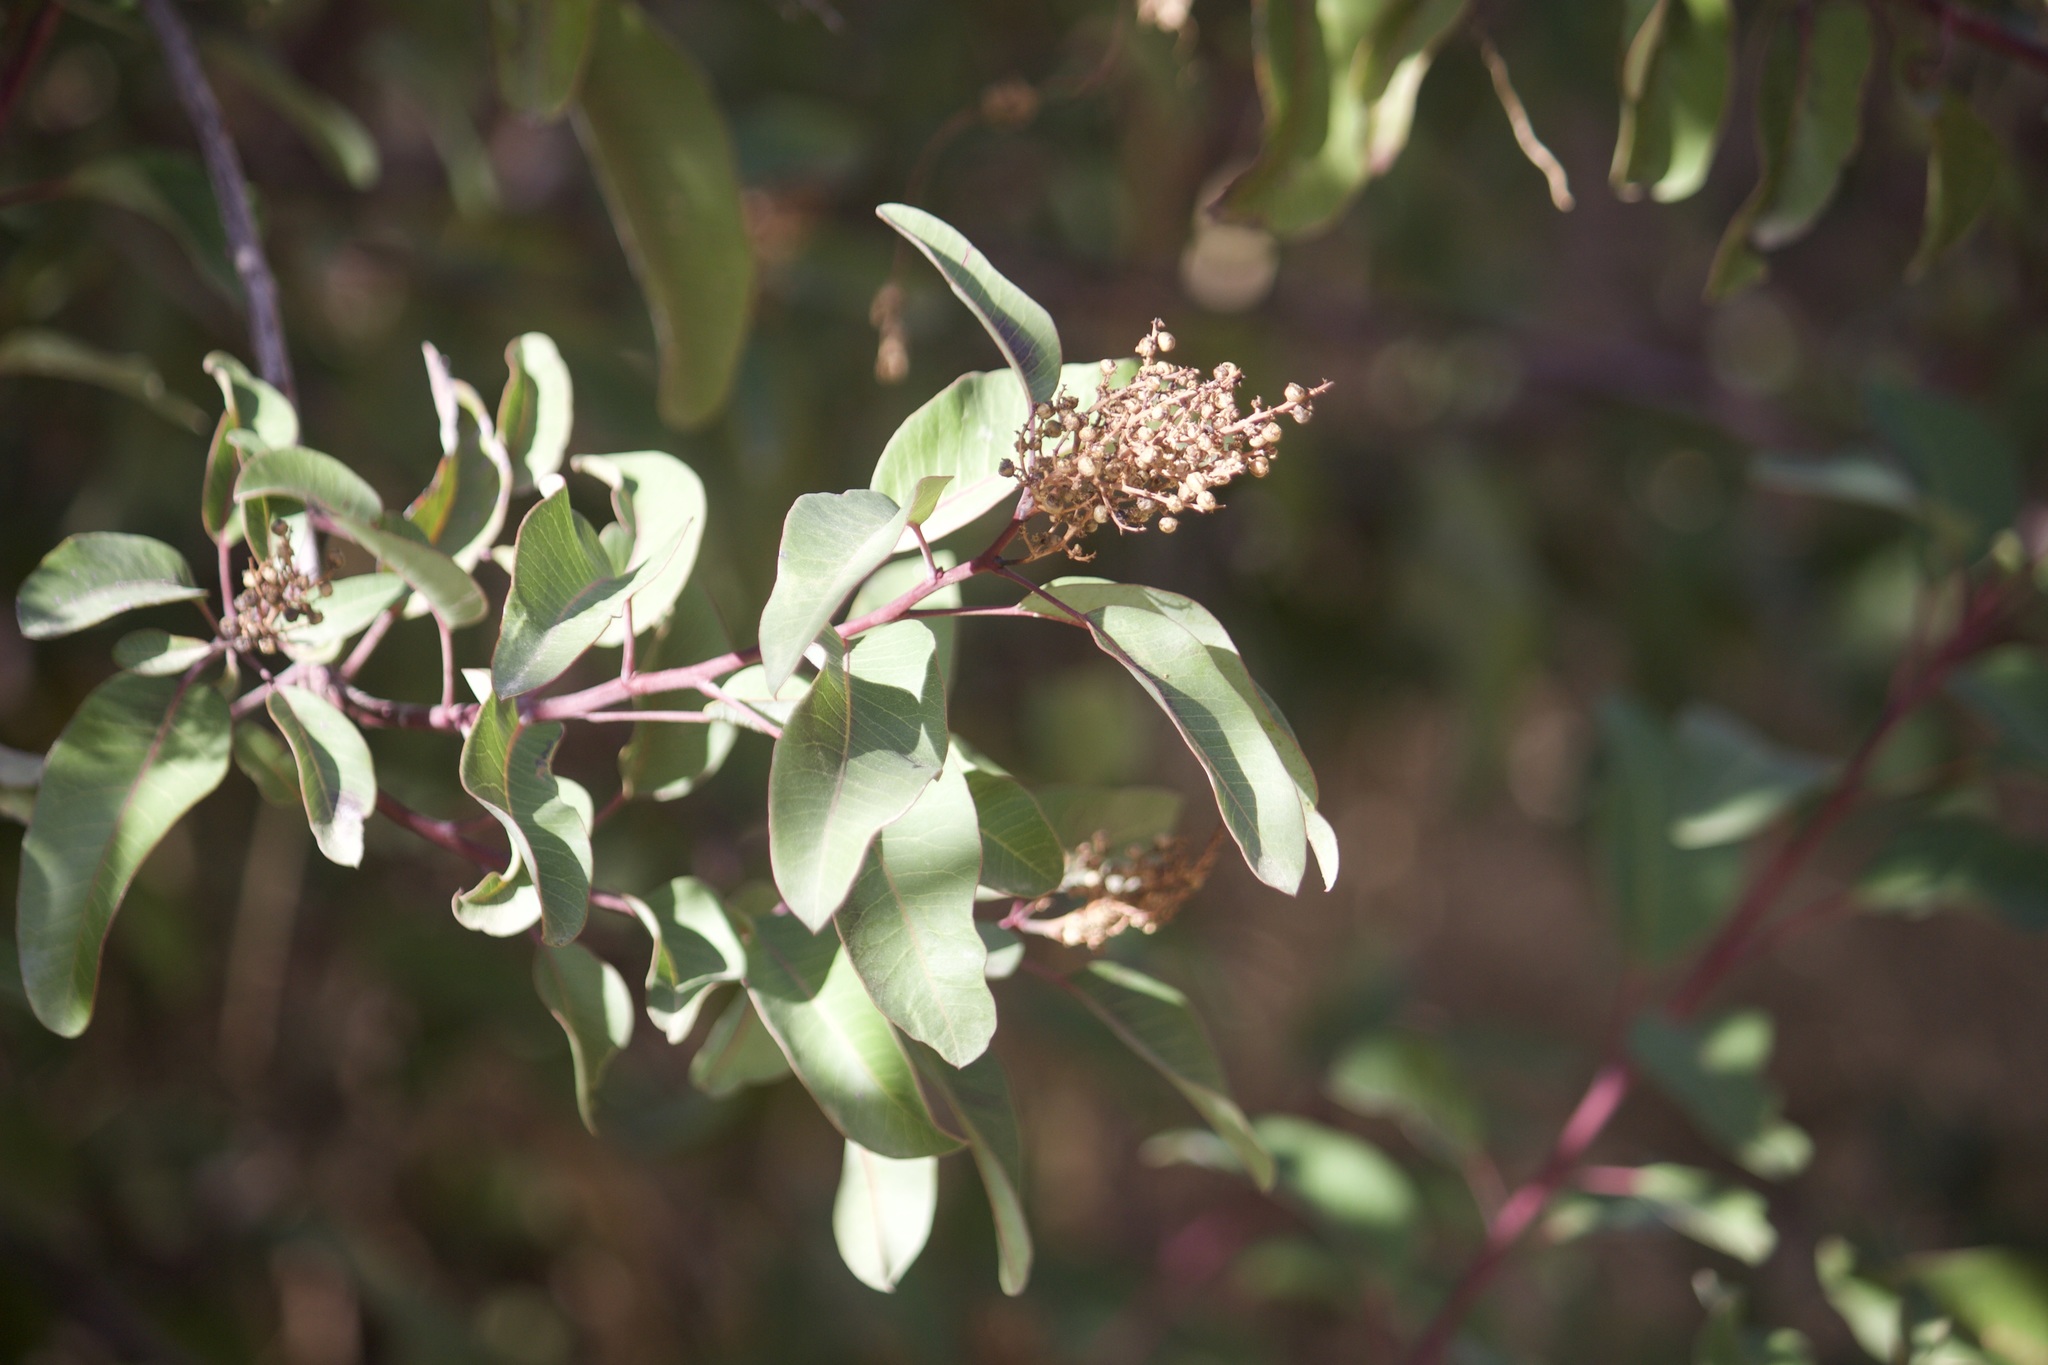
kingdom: Plantae
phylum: Tracheophyta
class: Magnoliopsida
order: Sapindales
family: Anacardiaceae
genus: Malosma
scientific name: Malosma laurina
